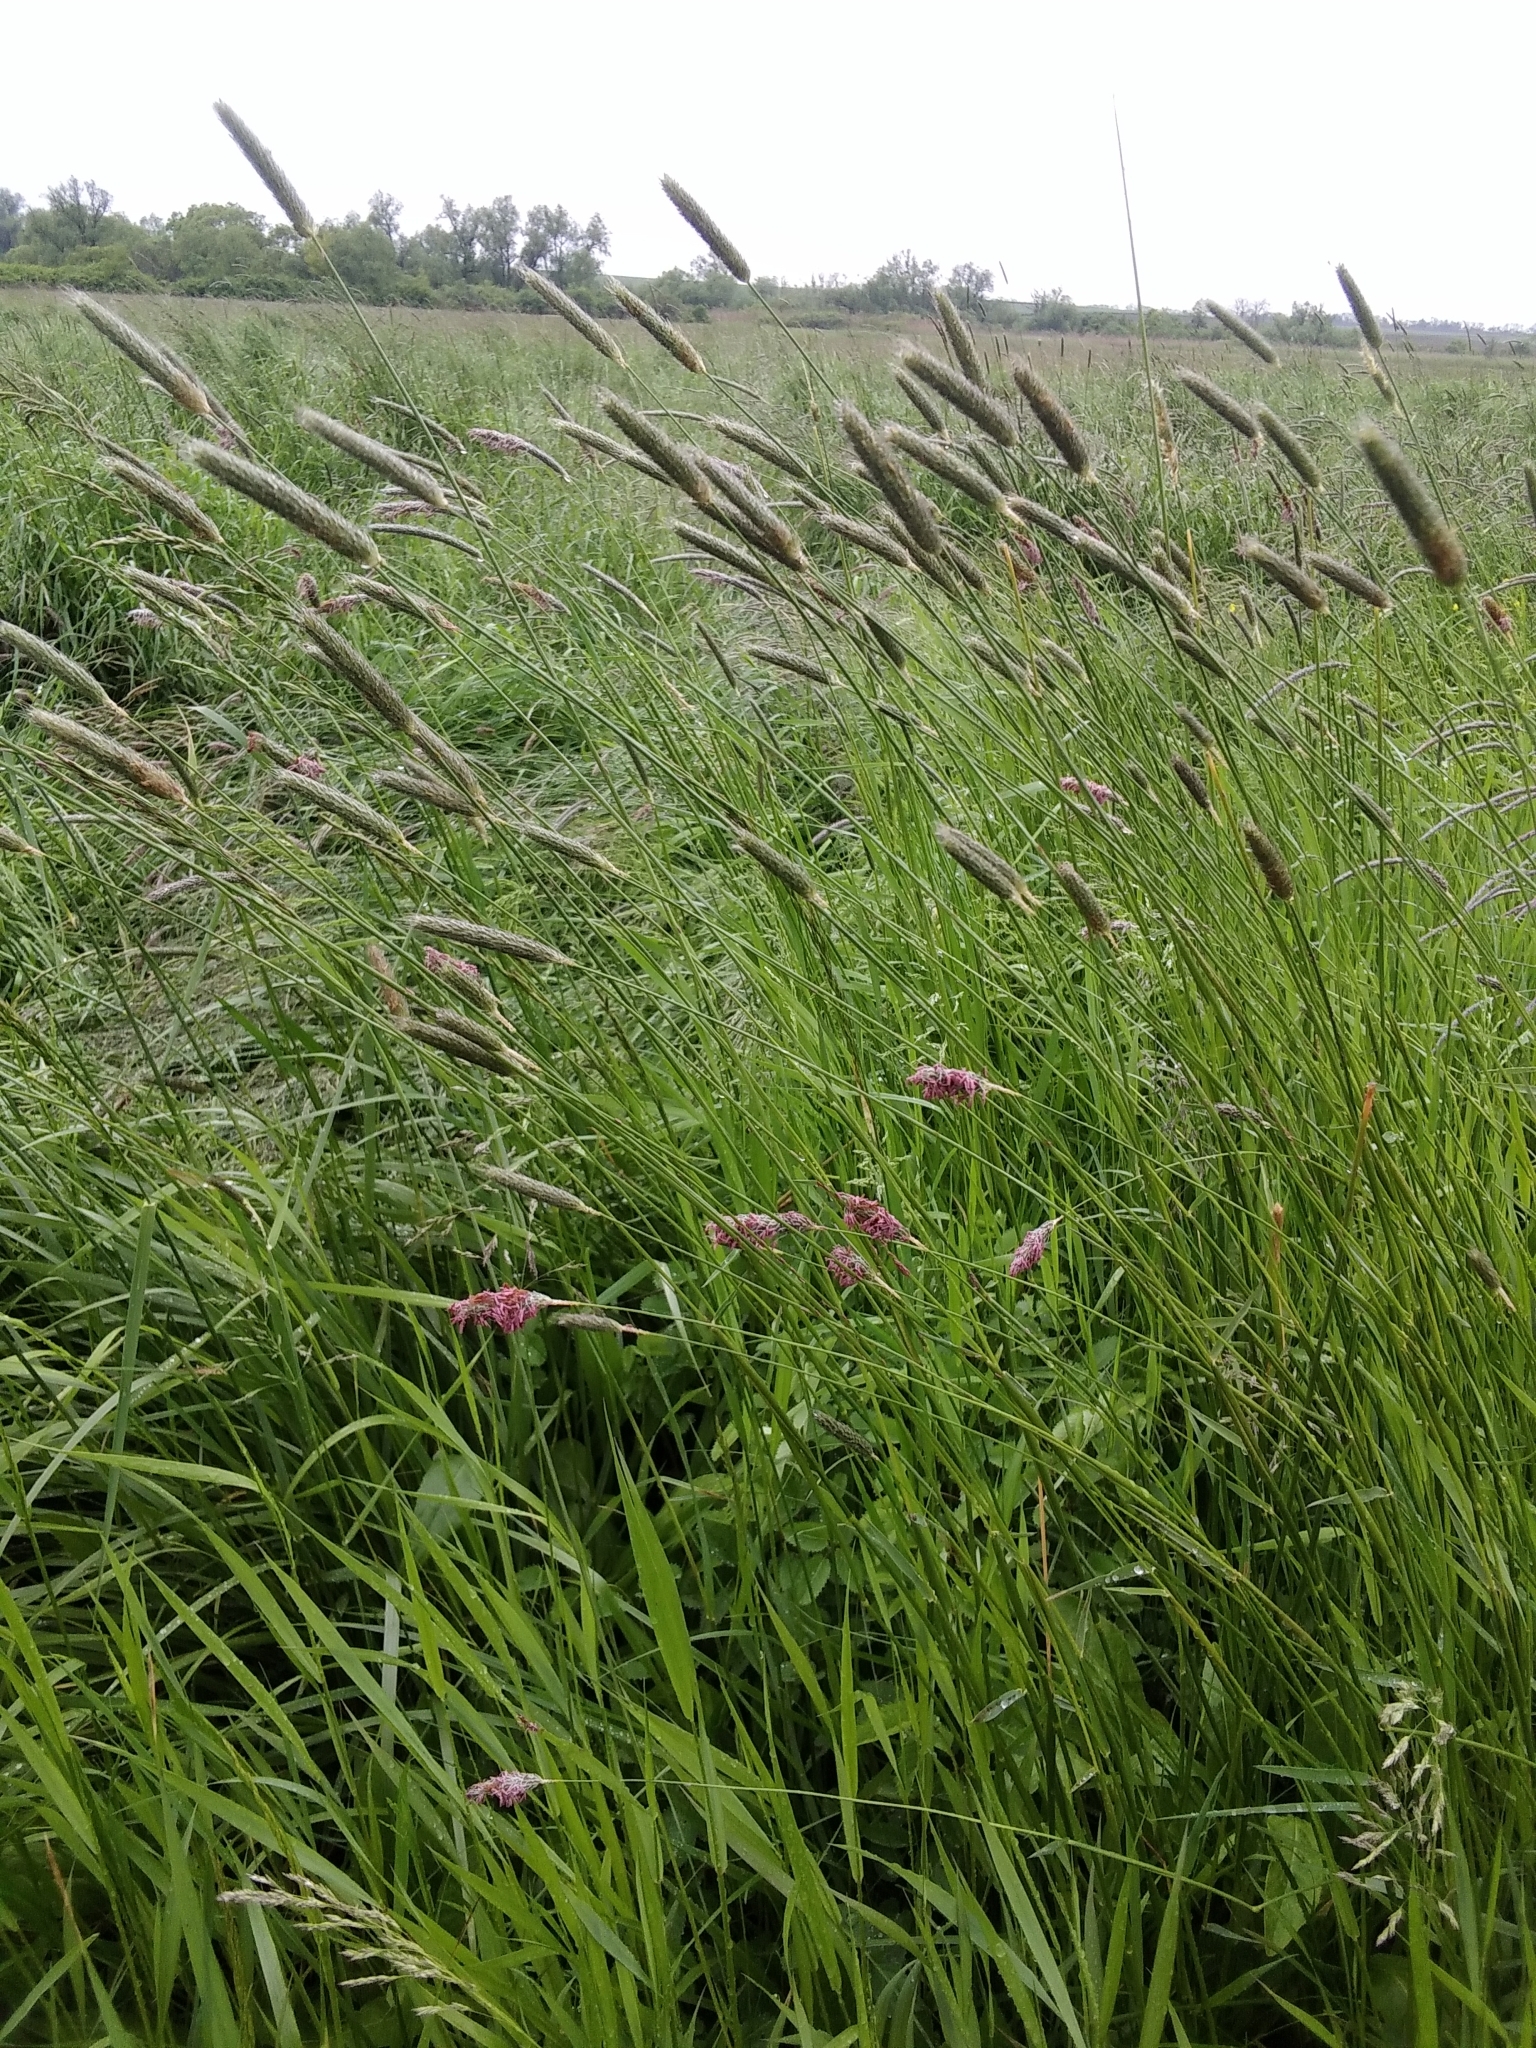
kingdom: Plantae
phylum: Tracheophyta
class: Liliopsida
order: Poales
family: Poaceae
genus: Alopecurus
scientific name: Alopecurus pratensis
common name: Meadow foxtail
